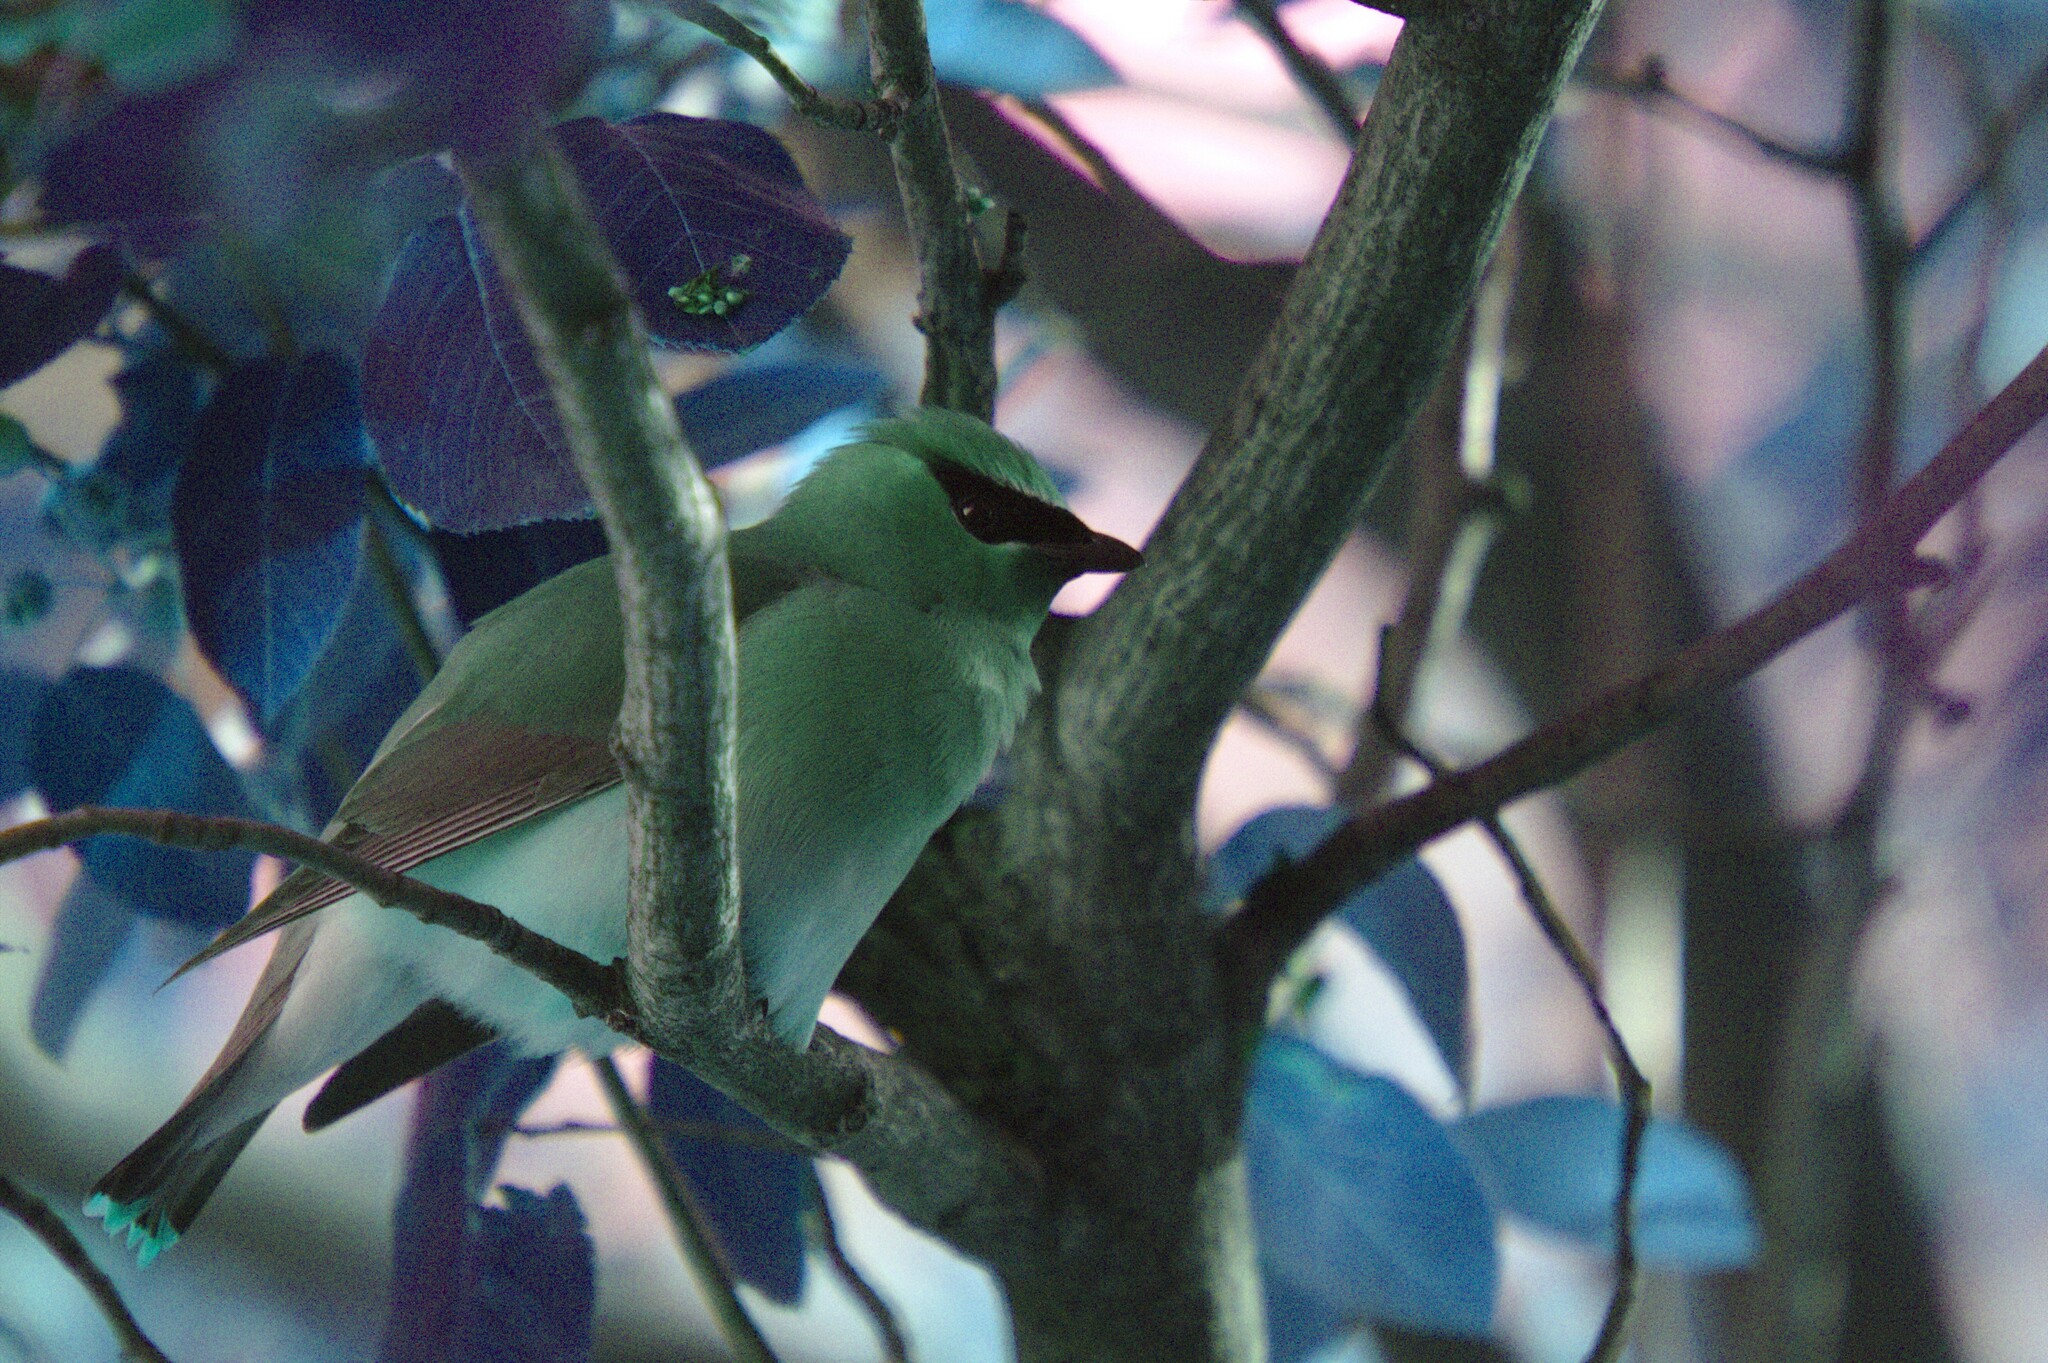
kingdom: Animalia
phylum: Chordata
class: Aves
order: Passeriformes
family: Bombycillidae
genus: Bombycilla
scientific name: Bombycilla cedrorum
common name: Cedar waxwing
